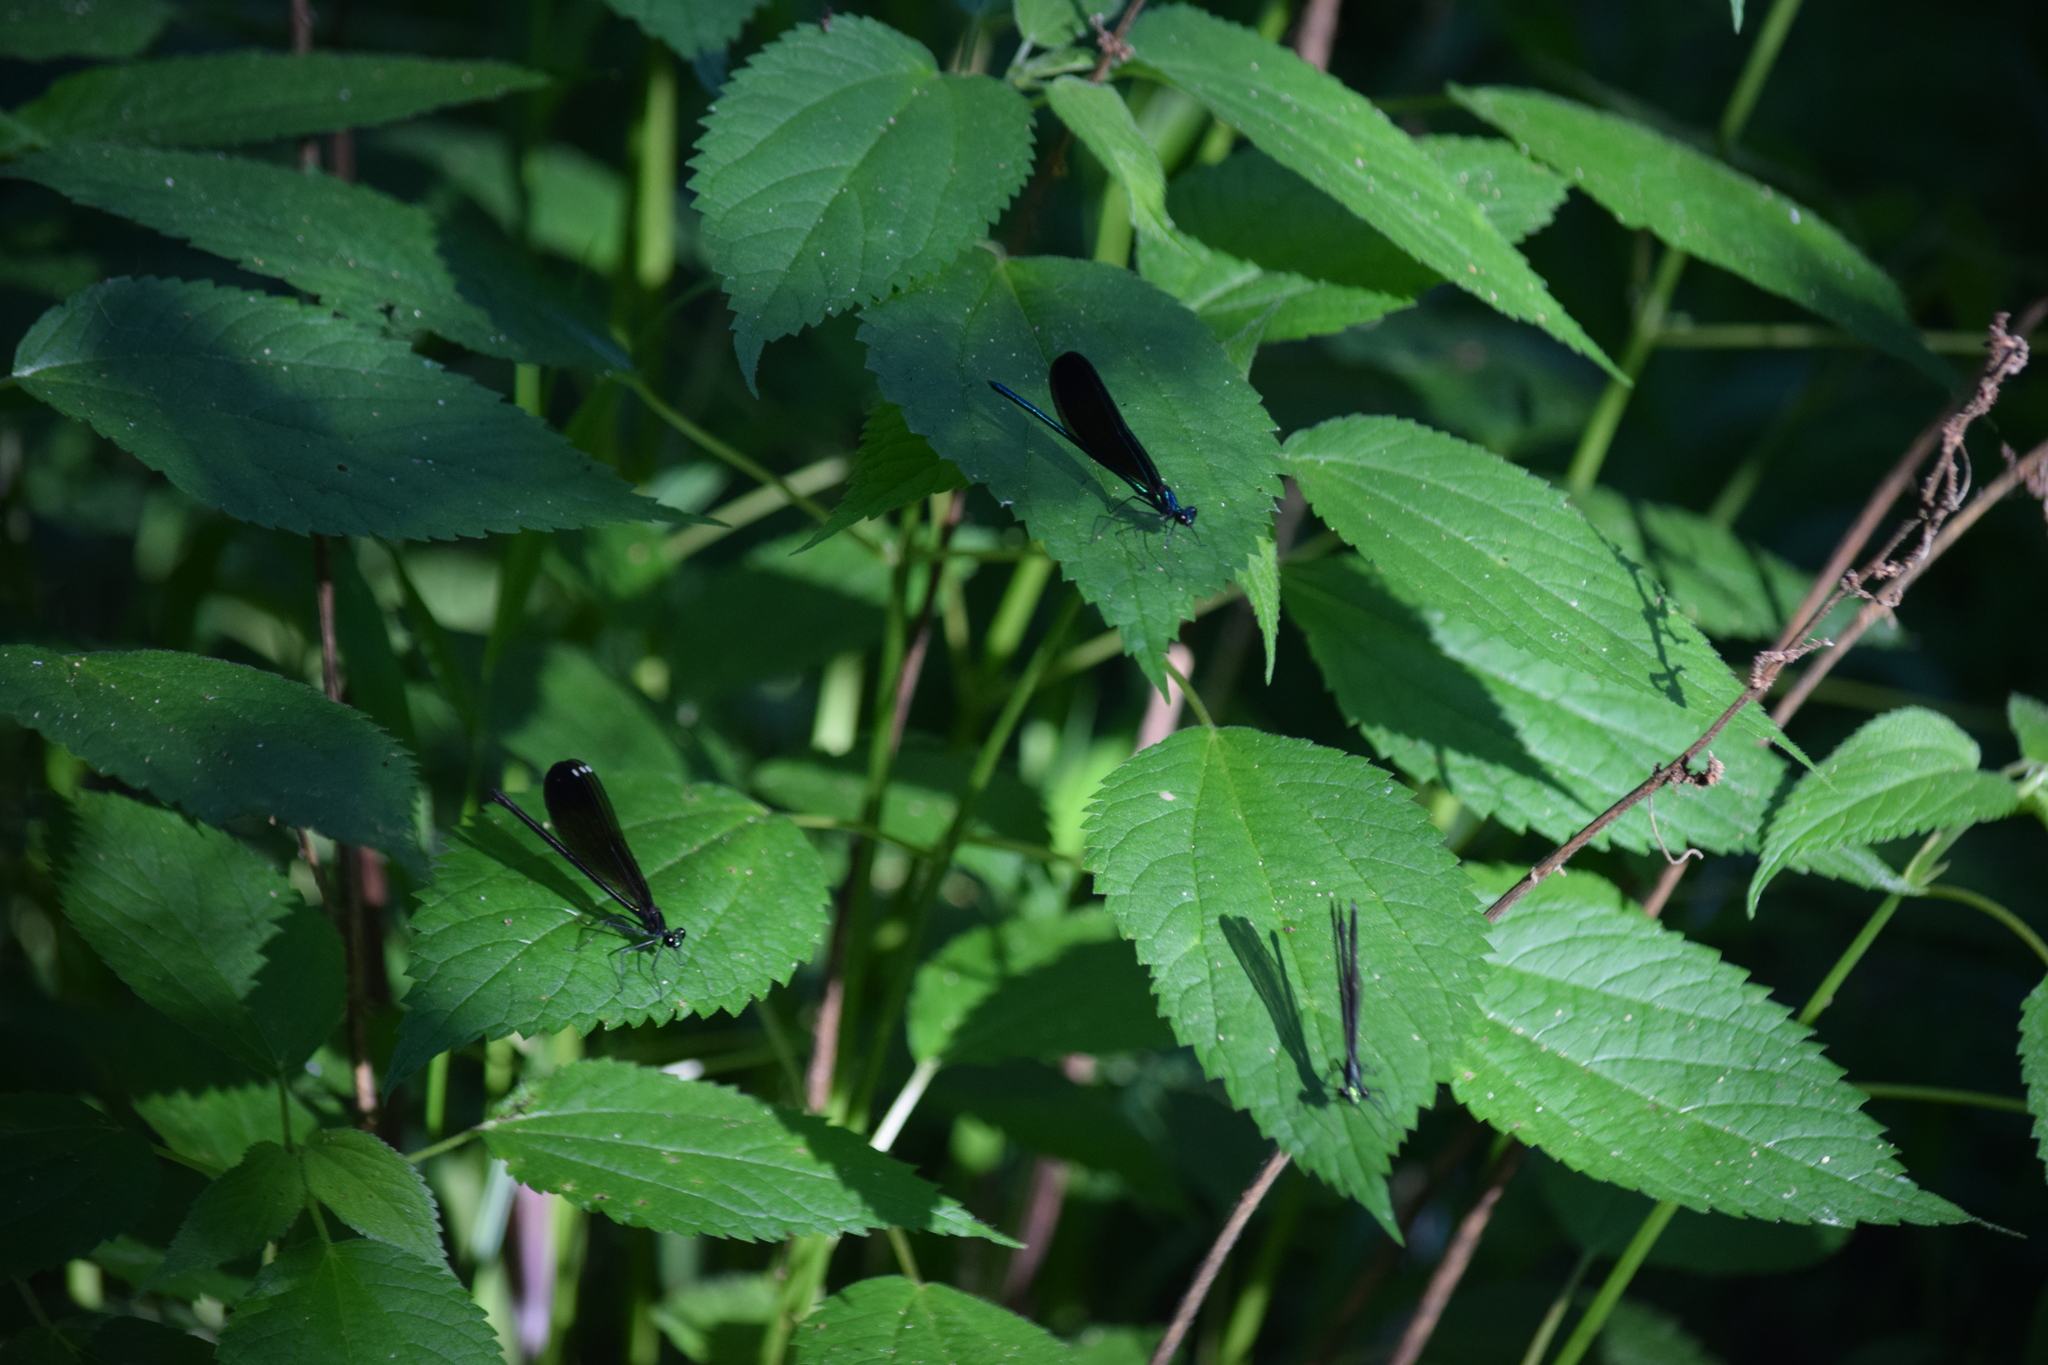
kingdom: Animalia
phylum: Arthropoda
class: Insecta
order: Odonata
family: Calopterygidae
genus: Calopteryx
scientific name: Calopteryx maculata
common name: Ebony jewelwing
